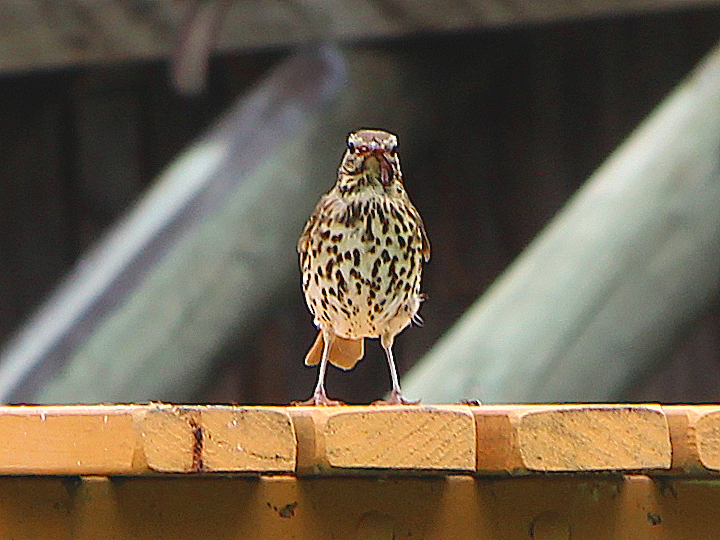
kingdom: Animalia
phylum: Chordata
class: Aves
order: Passeriformes
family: Turdidae
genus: Turdus
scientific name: Turdus philomelos
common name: Song thrush
